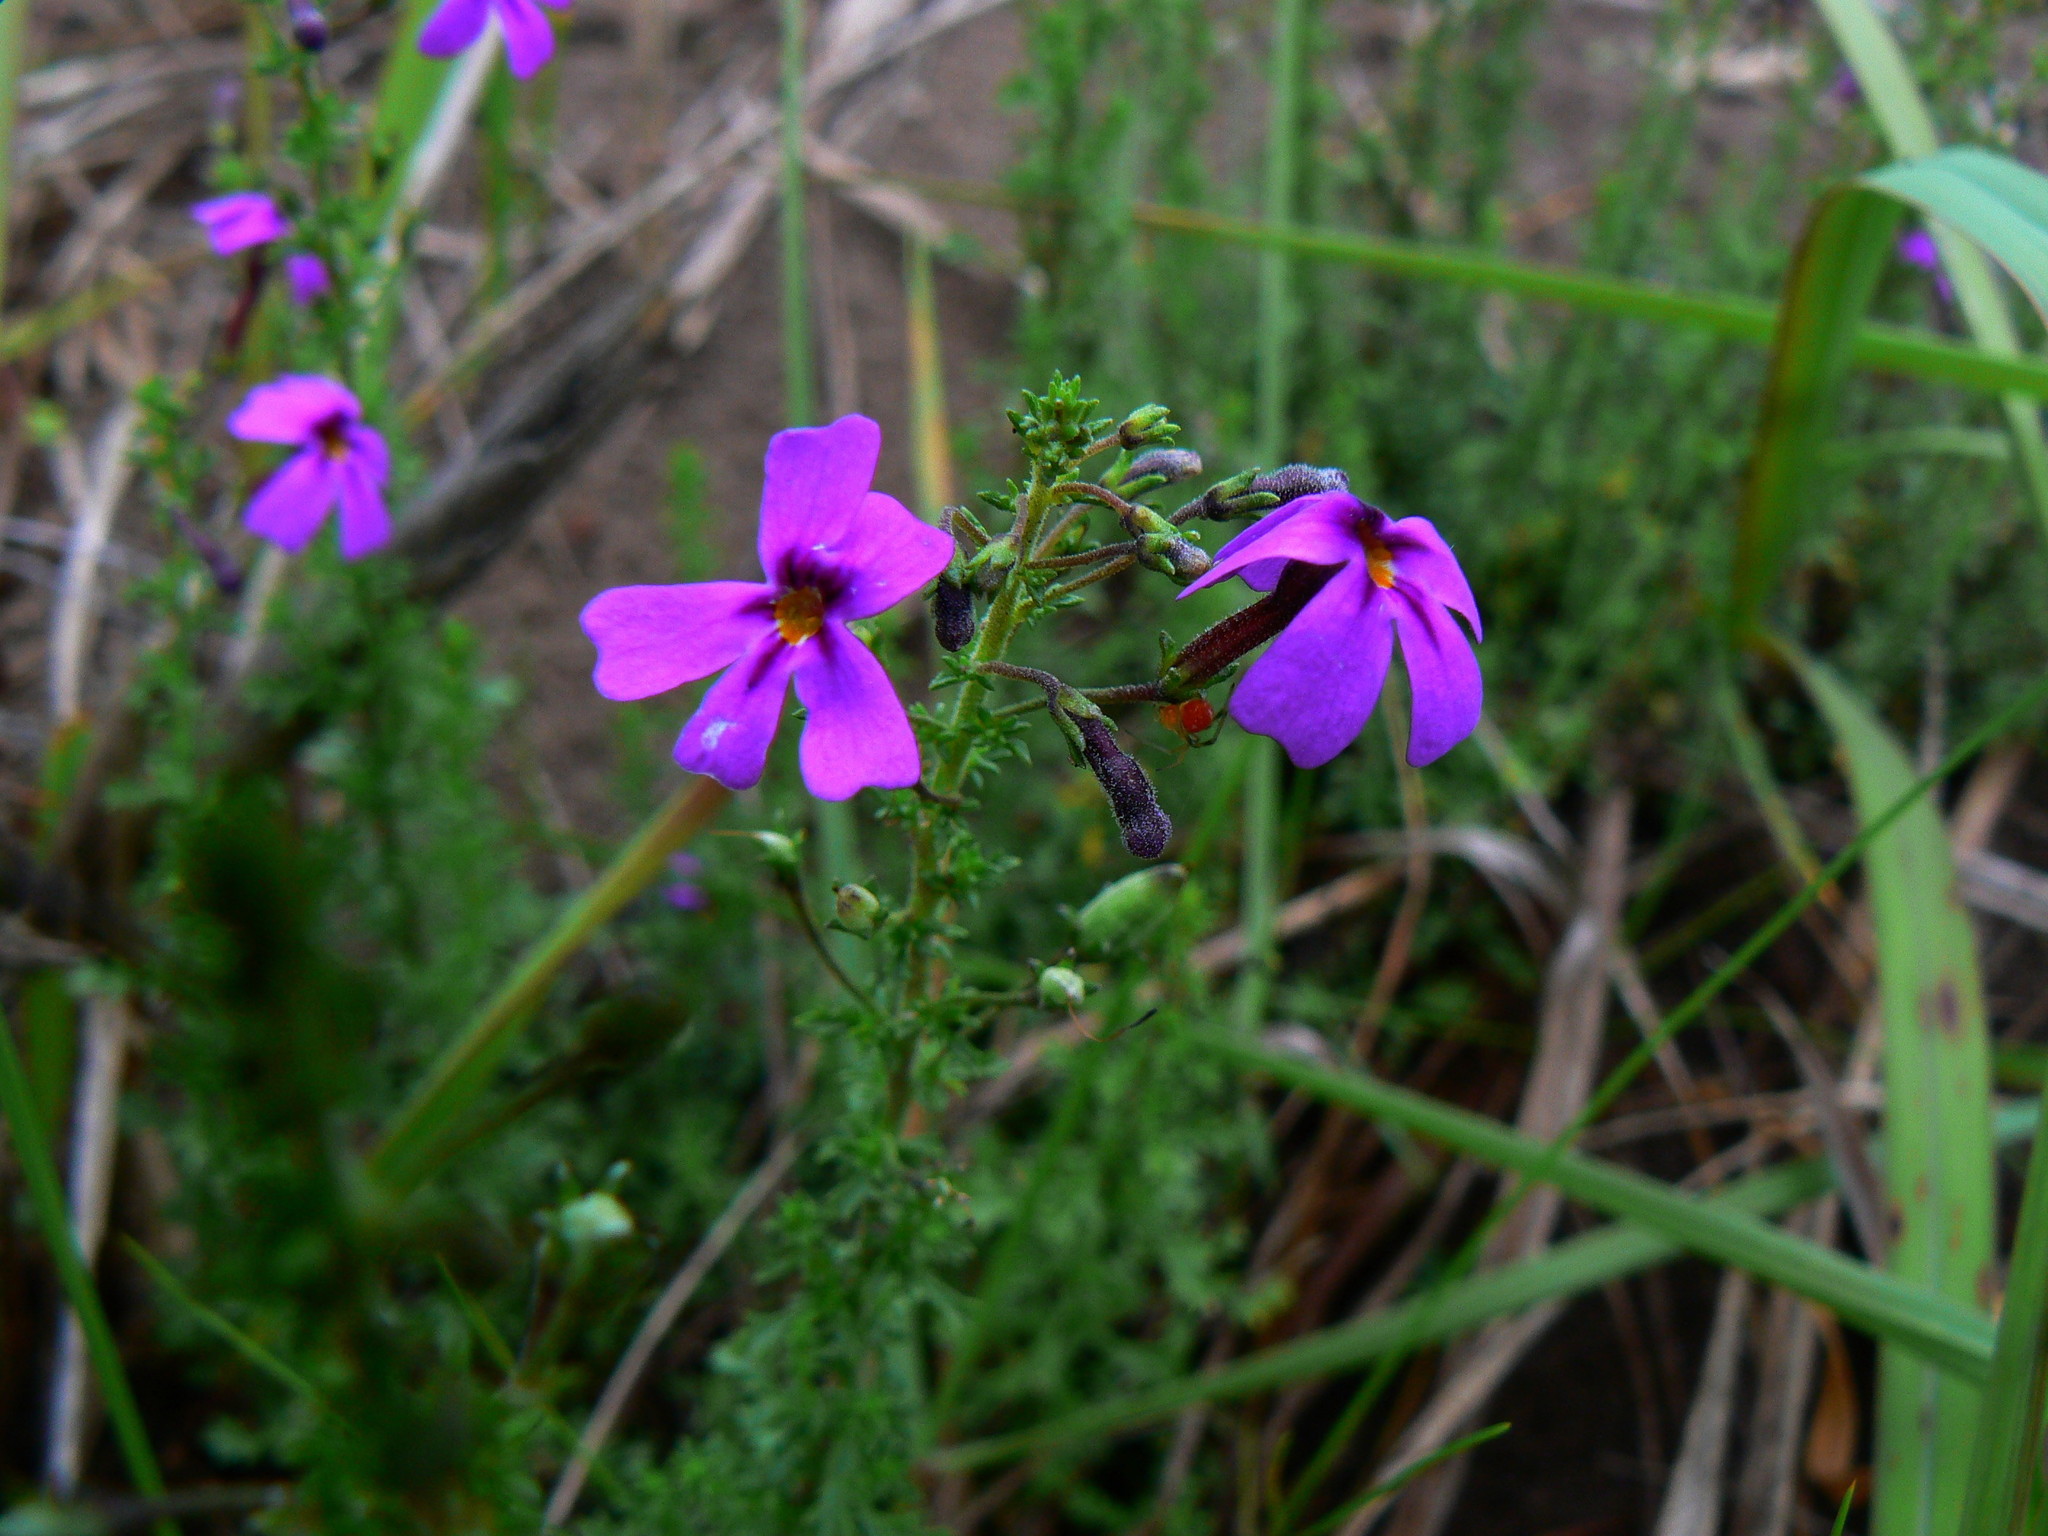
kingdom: Plantae
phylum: Tracheophyta
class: Magnoliopsida
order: Lamiales
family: Scrophulariaceae
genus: Jamesbrittenia
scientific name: Jamesbrittenia microphylla
